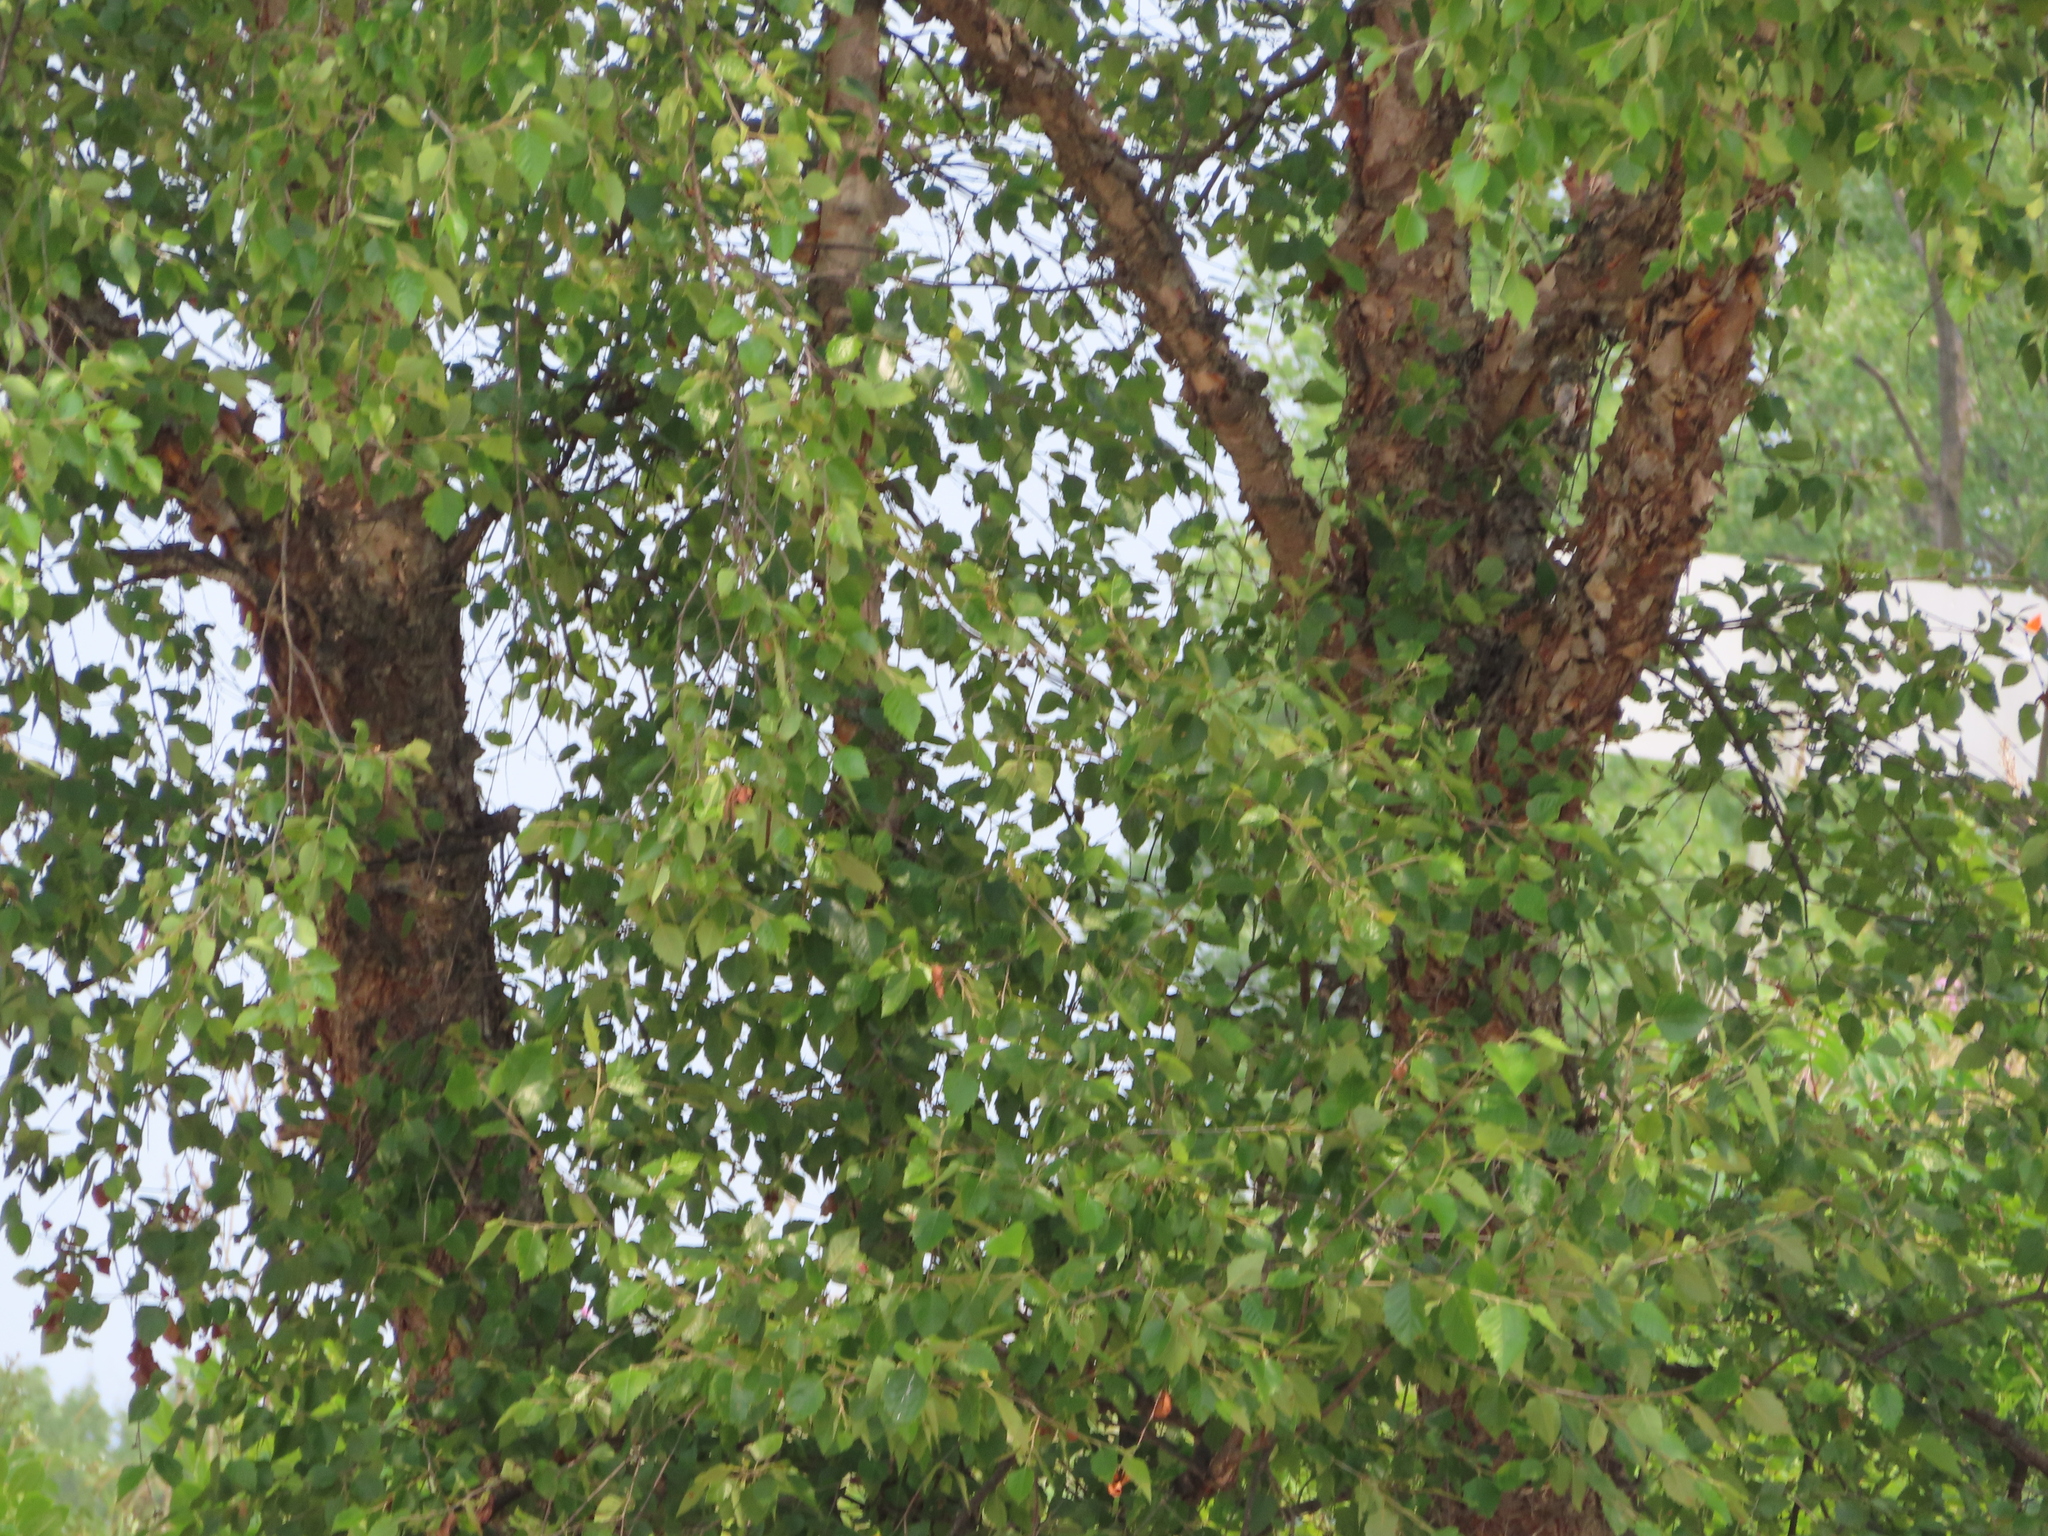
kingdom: Plantae
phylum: Tracheophyta
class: Magnoliopsida
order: Fagales
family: Betulaceae
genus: Betula
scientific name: Betula nigra
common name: Black birch
